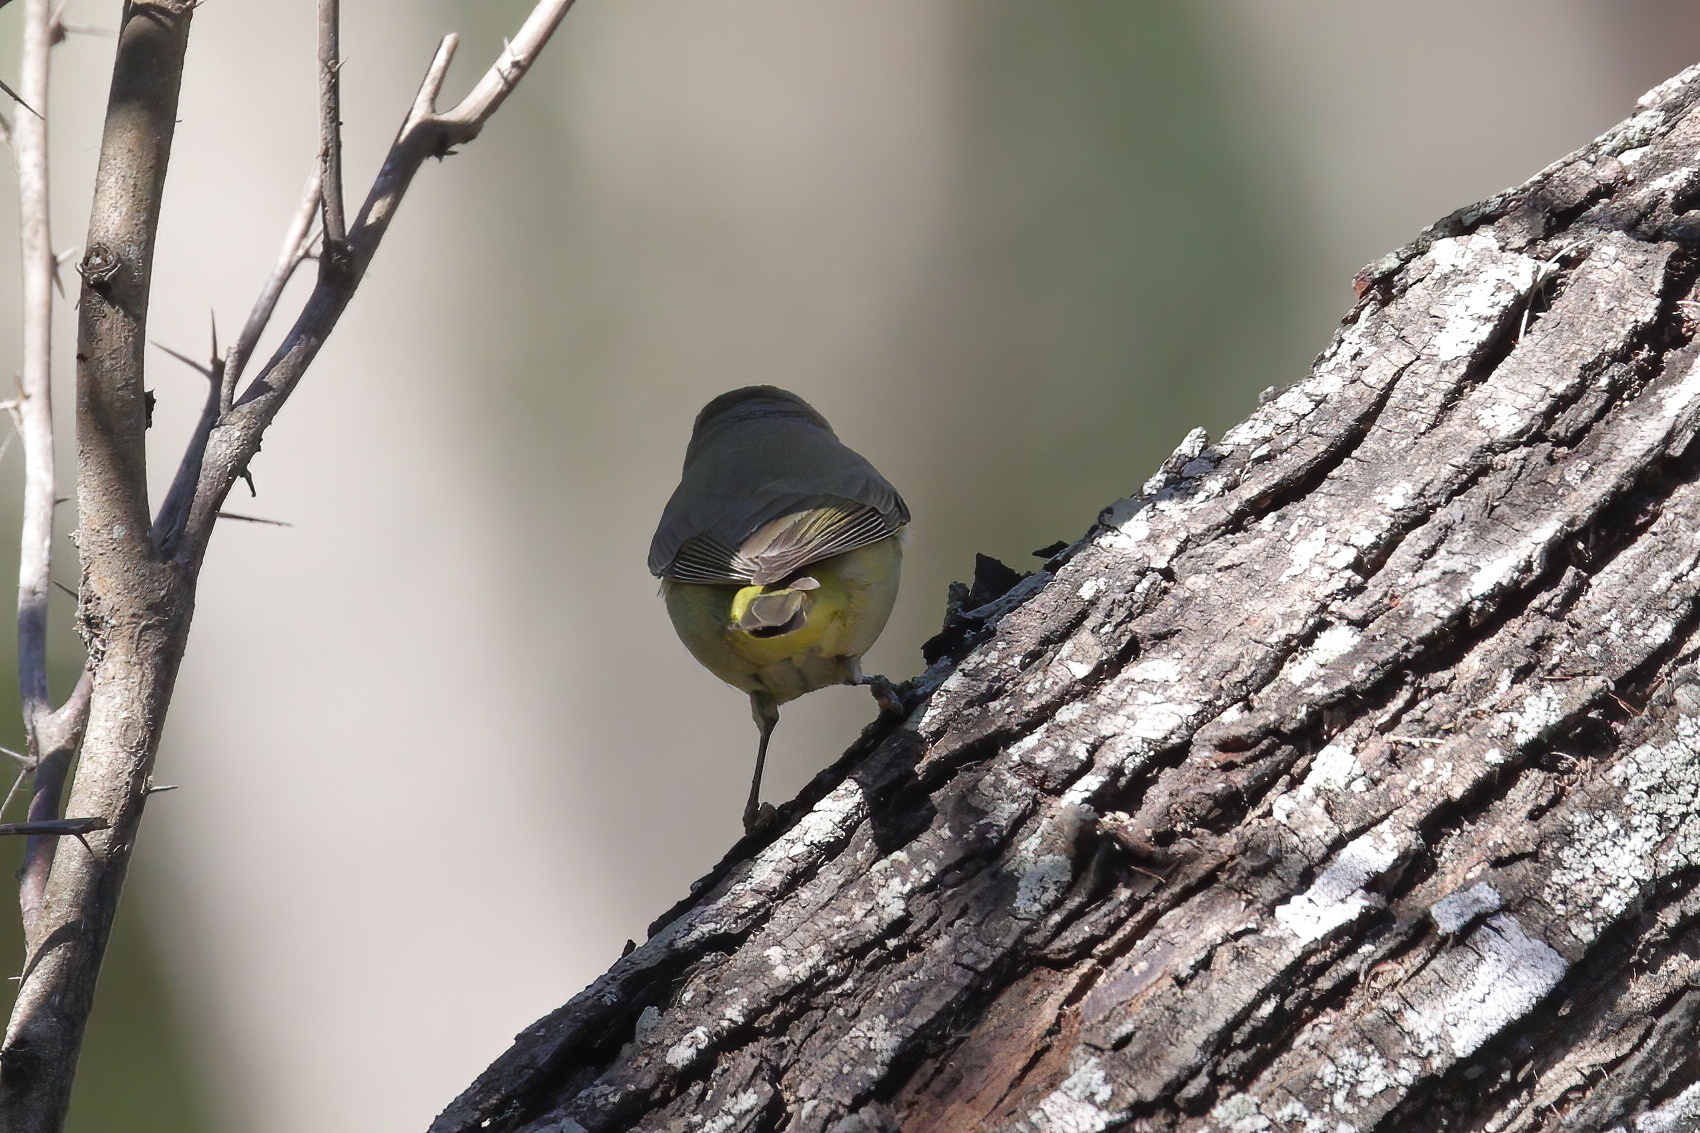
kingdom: Animalia
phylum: Chordata
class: Aves
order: Passeriformes
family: Parulidae
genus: Leiothlypis
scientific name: Leiothlypis celata
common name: Orange-crowned warbler
